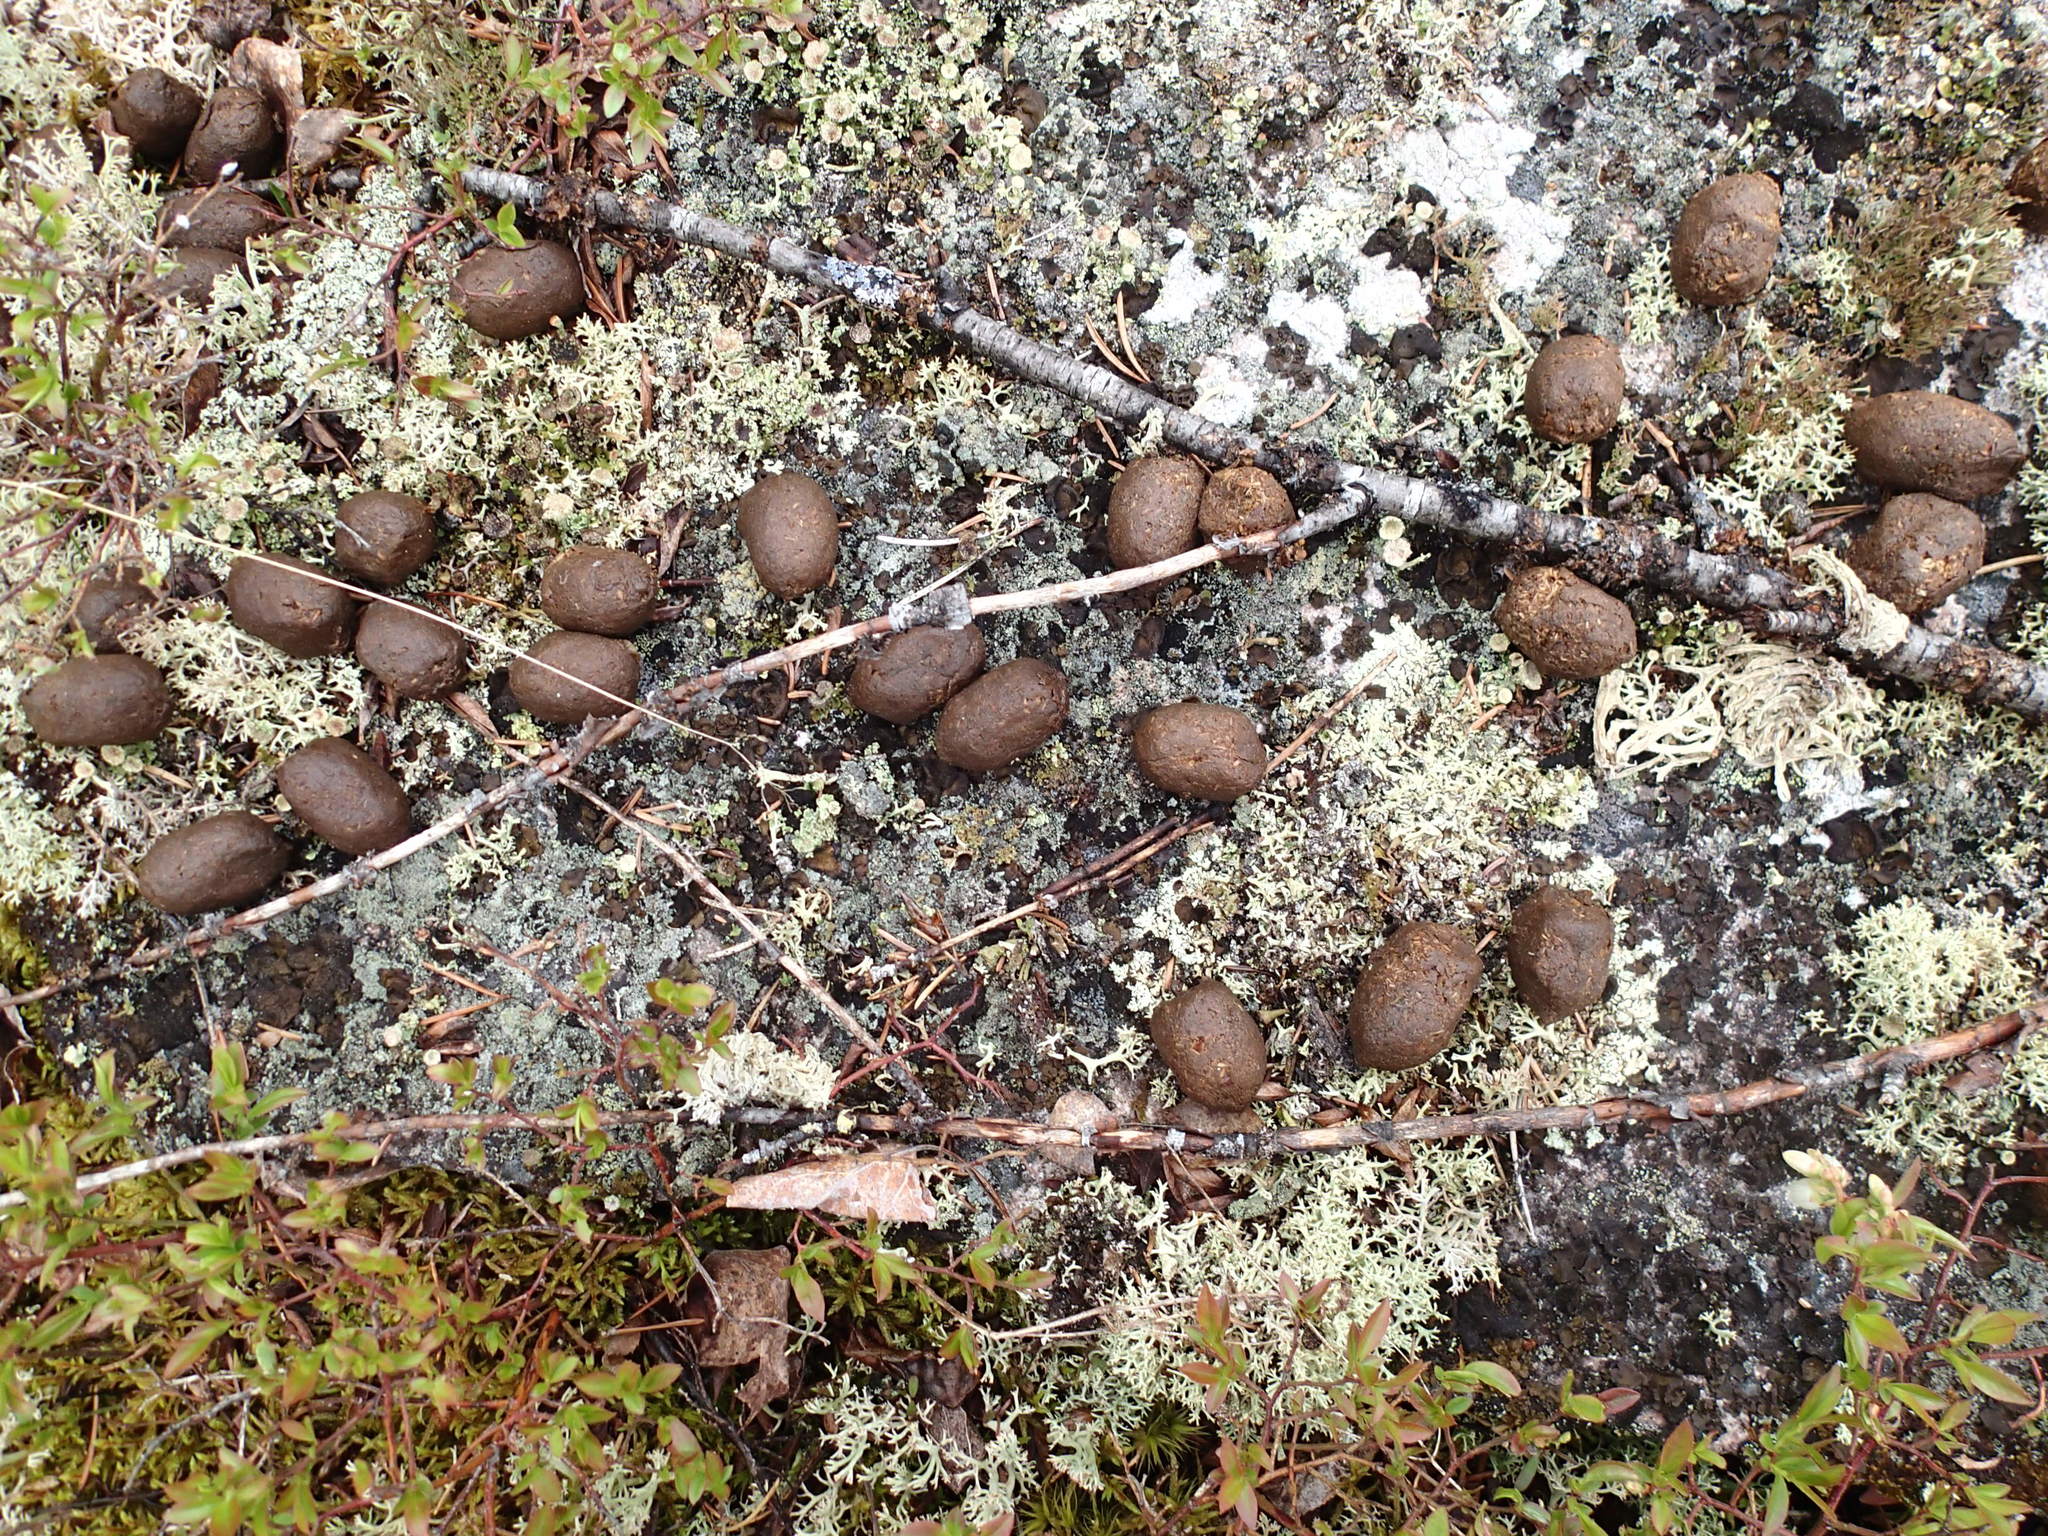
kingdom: Animalia
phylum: Chordata
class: Mammalia
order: Artiodactyla
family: Cervidae
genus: Alces
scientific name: Alces alces
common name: Moose
